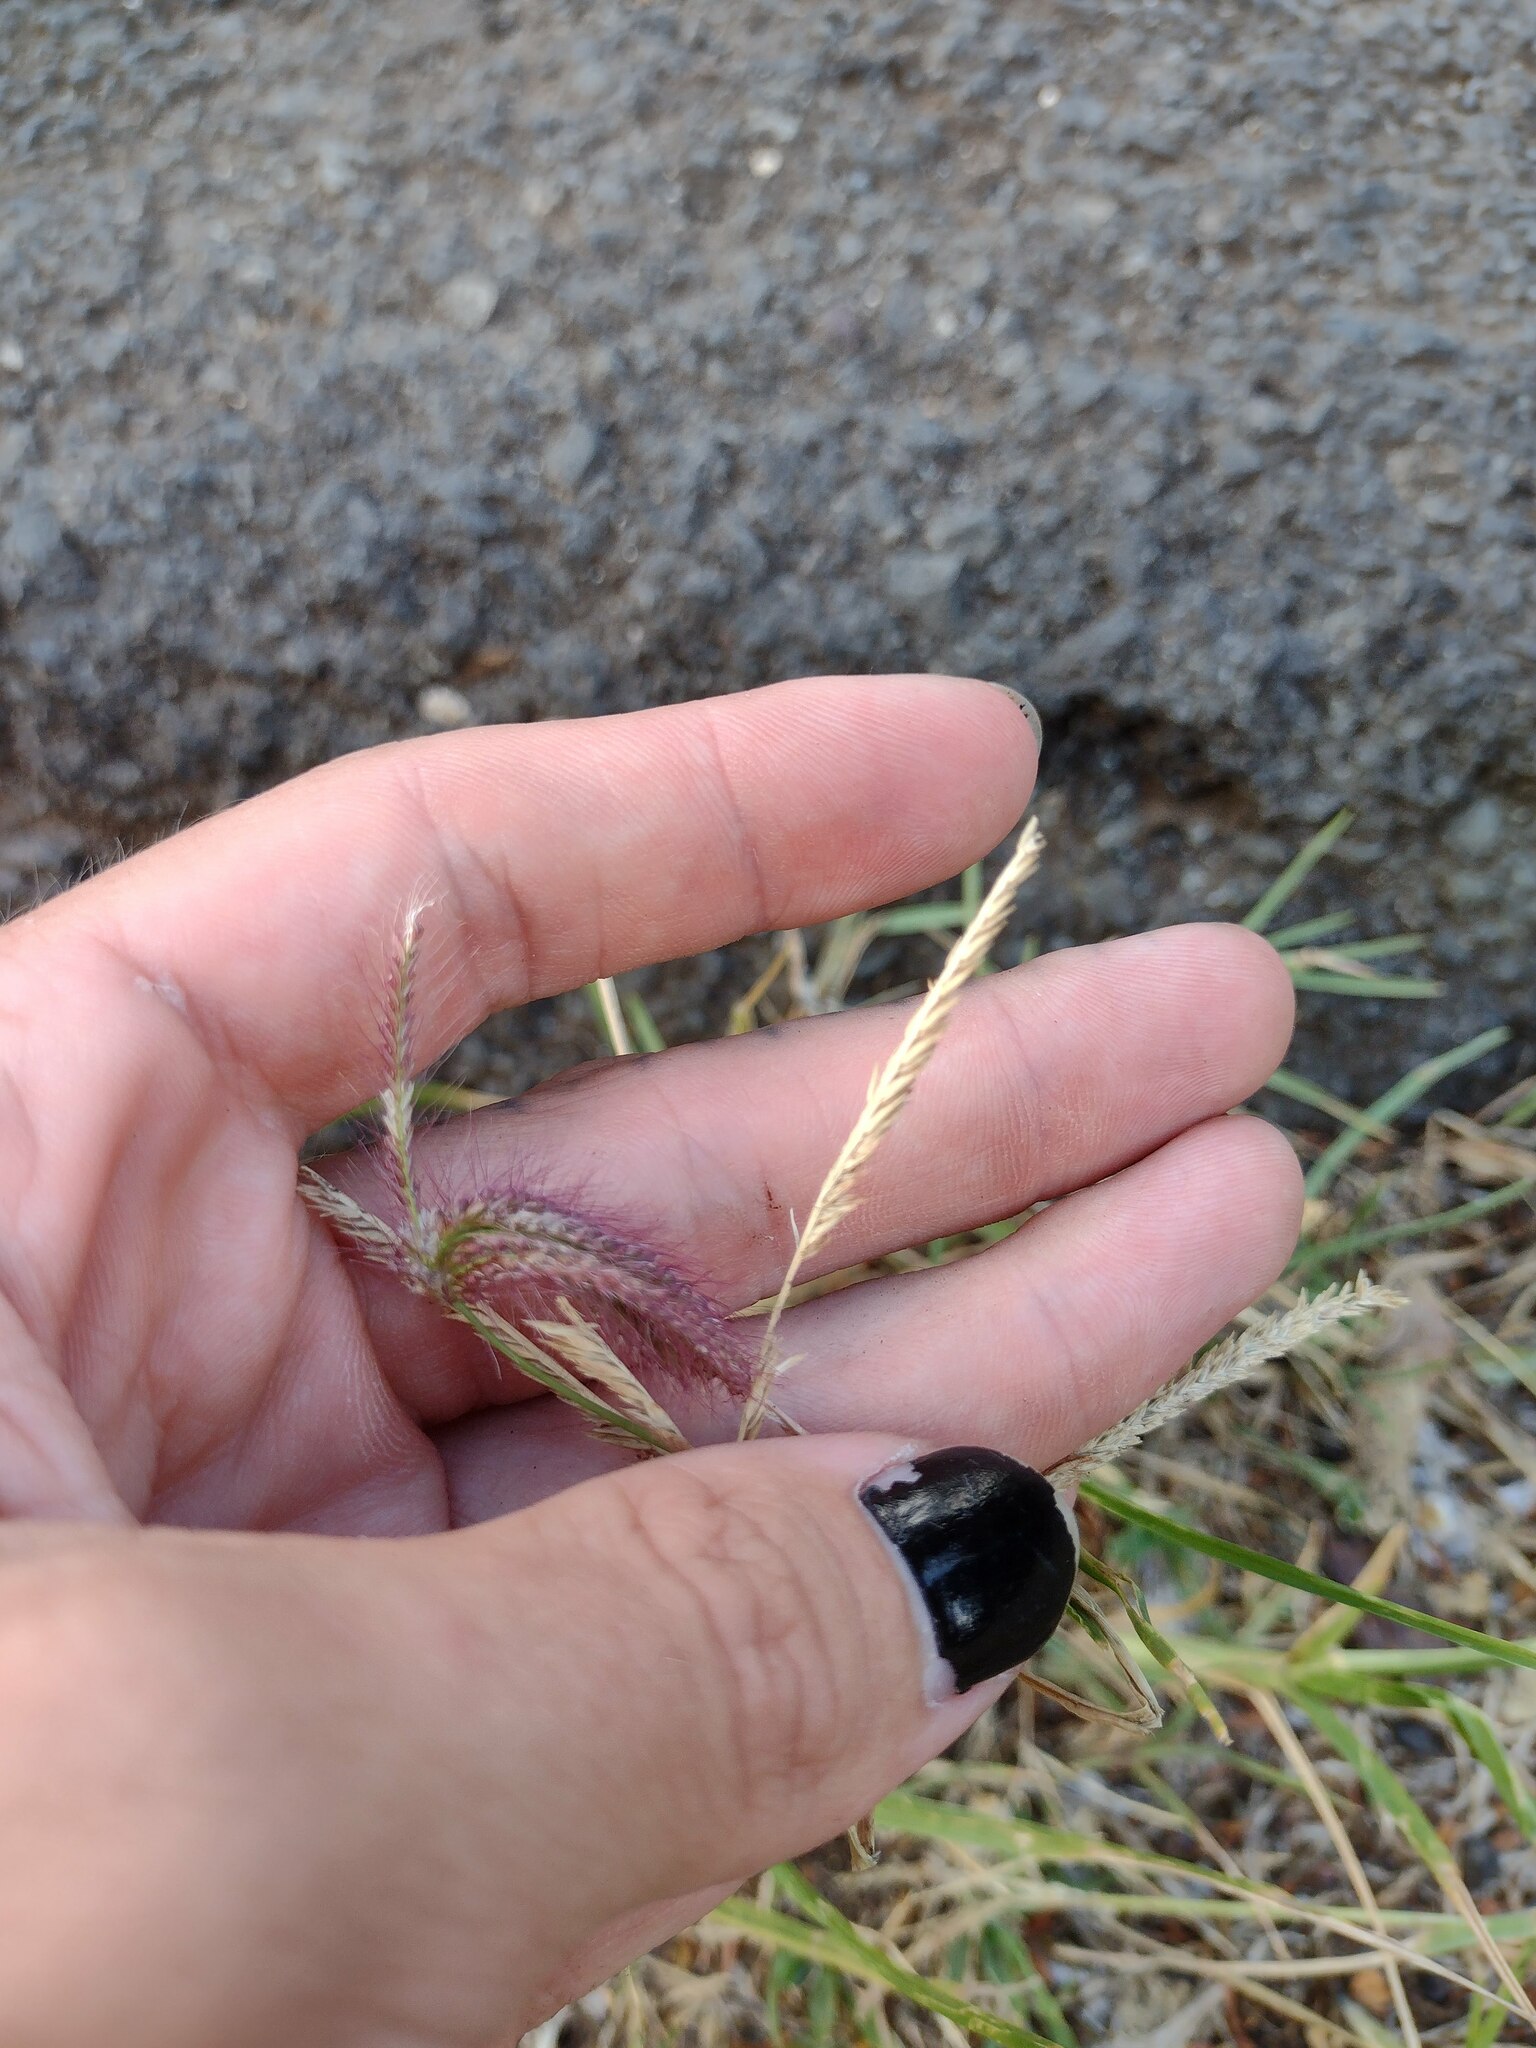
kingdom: Plantae
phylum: Tracheophyta
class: Liliopsida
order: Poales
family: Poaceae
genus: Chloris
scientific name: Chloris barbata
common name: Swollen fingergrass
